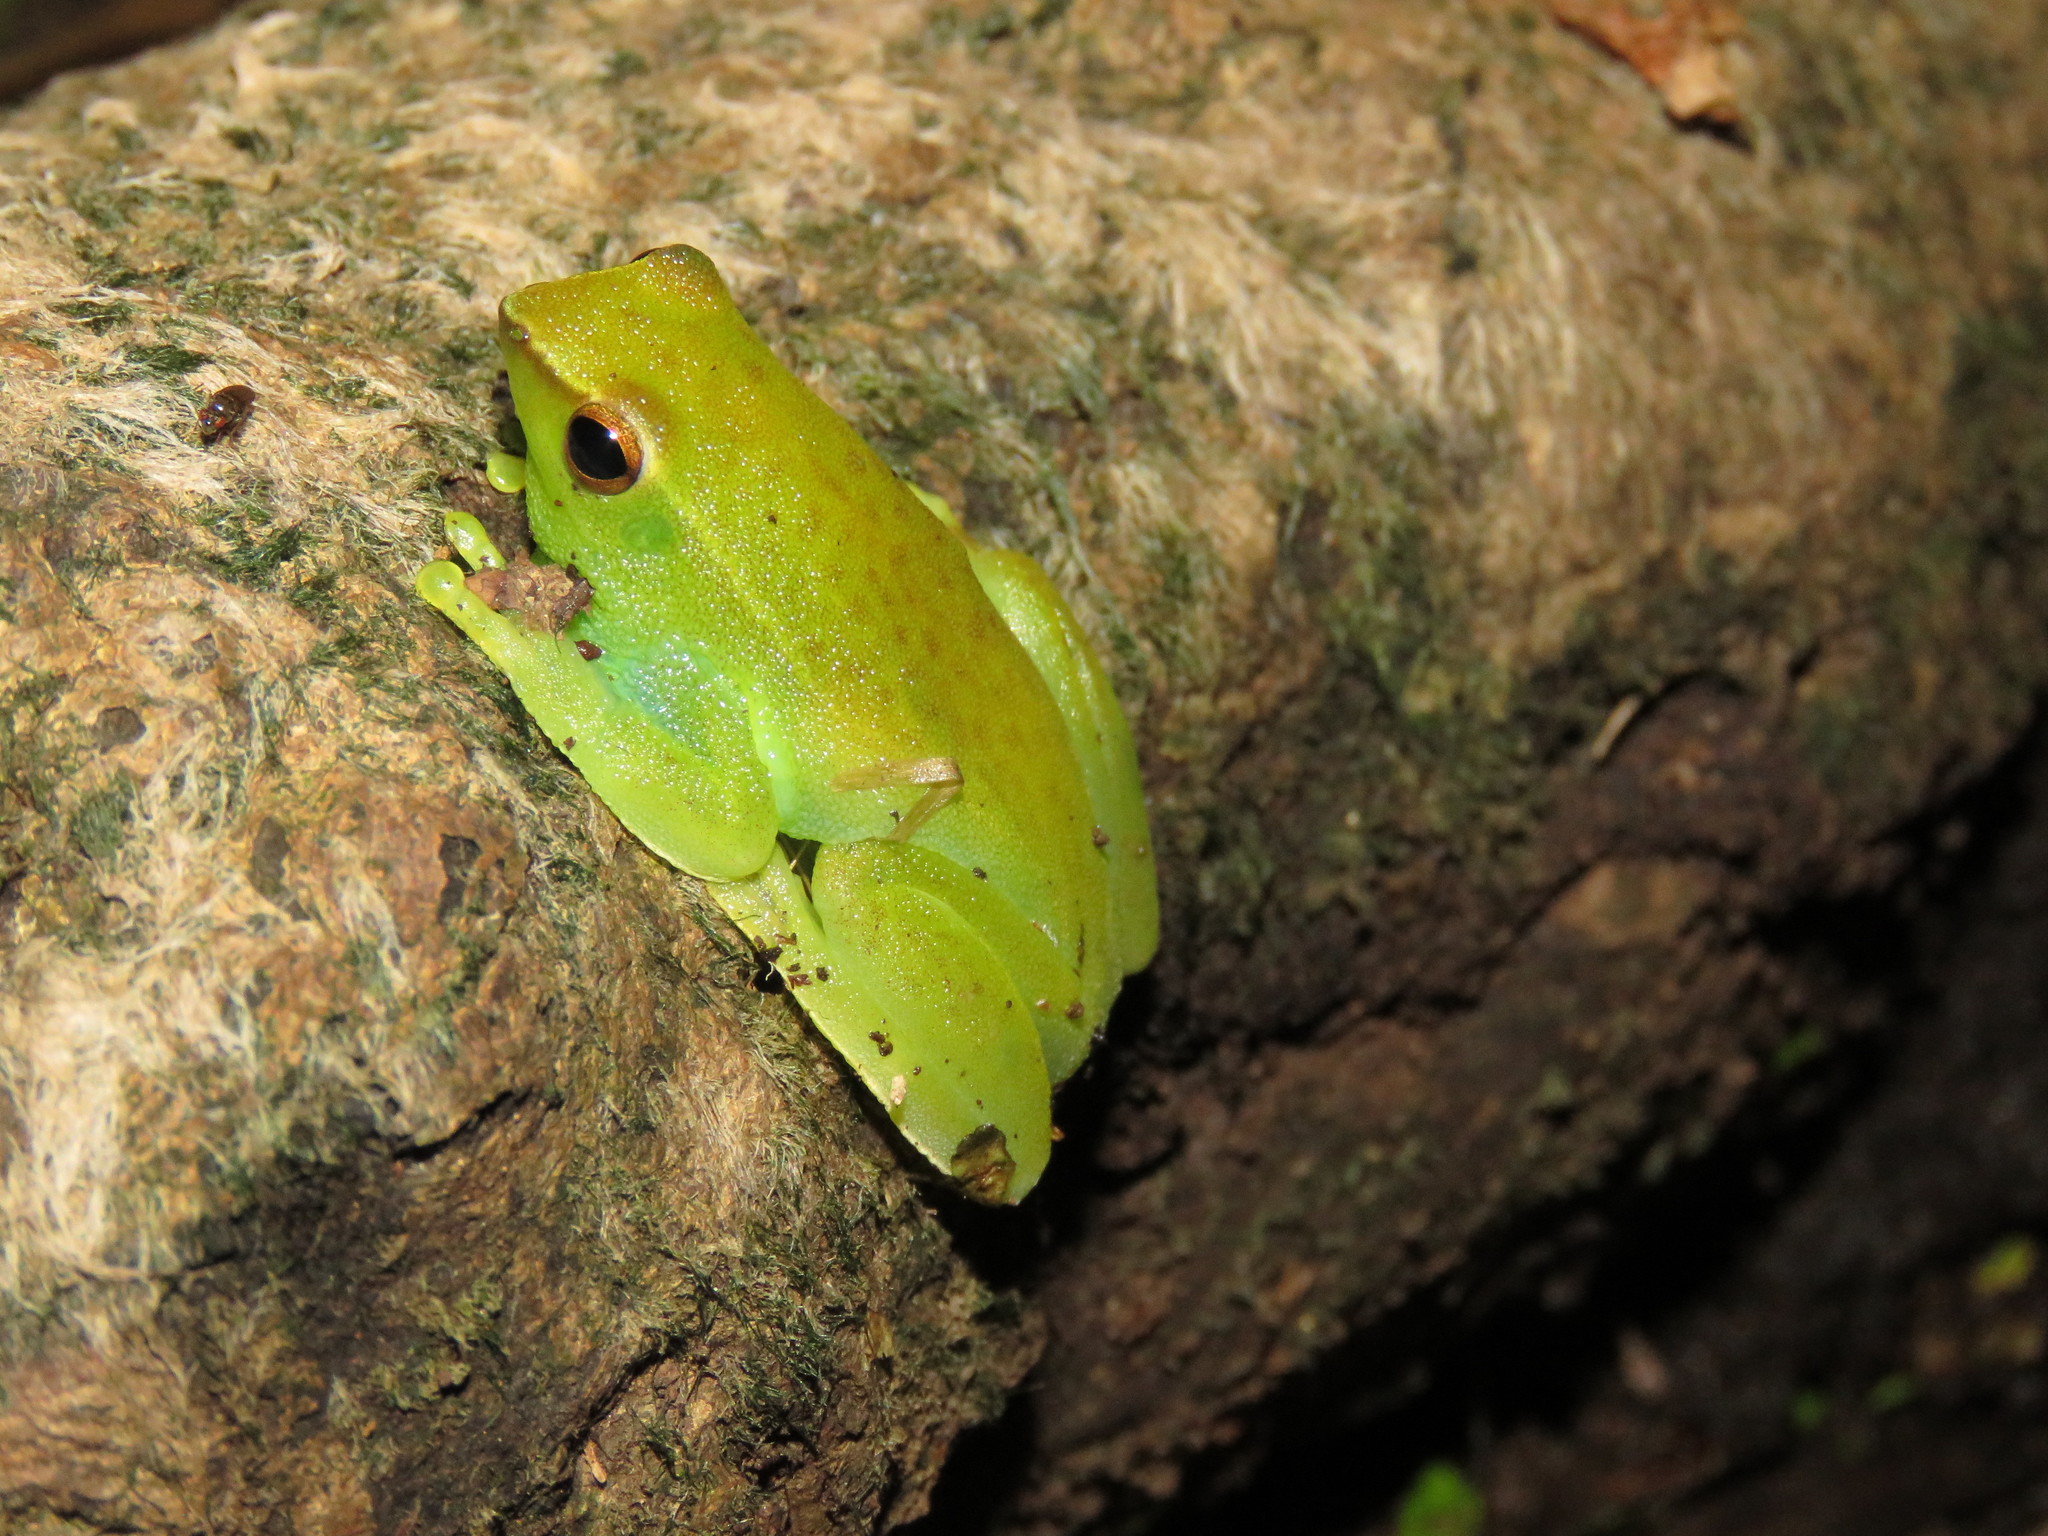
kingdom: Animalia
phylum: Chordata
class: Amphibia
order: Anura
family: Hylidae
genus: Sphaenorhynchus
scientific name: Sphaenorhynchus lacteus
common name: Orinoco lime treefrog
